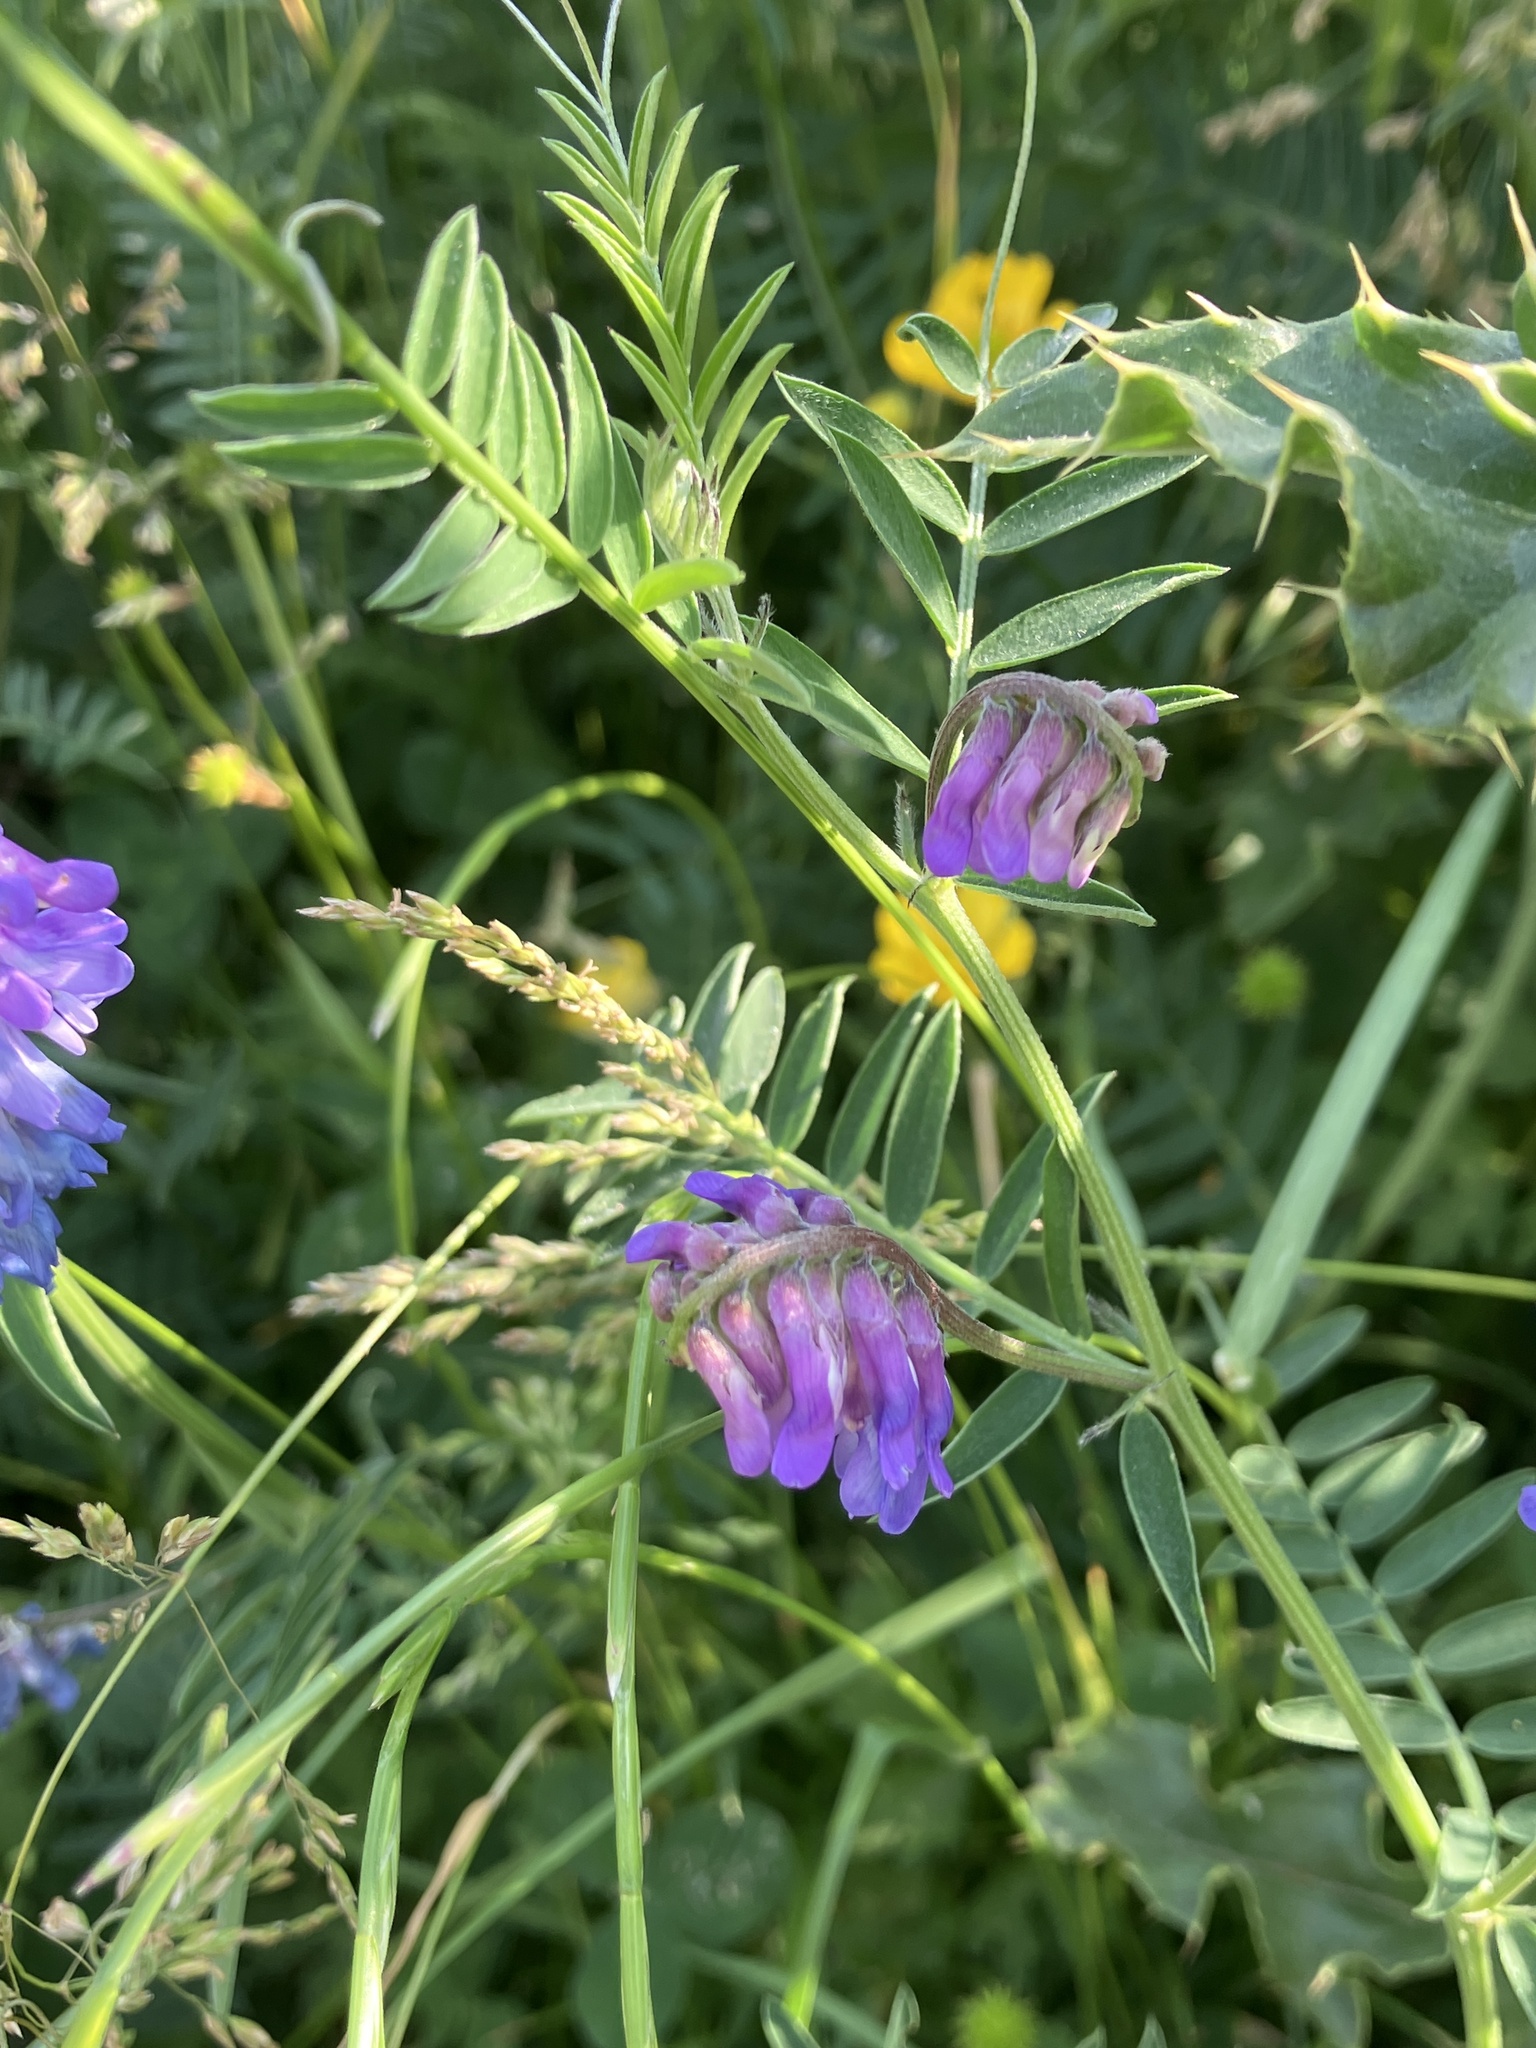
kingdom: Plantae
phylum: Tracheophyta
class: Magnoliopsida
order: Fabales
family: Fabaceae
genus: Vicia
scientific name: Vicia cracca
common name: Bird vetch
